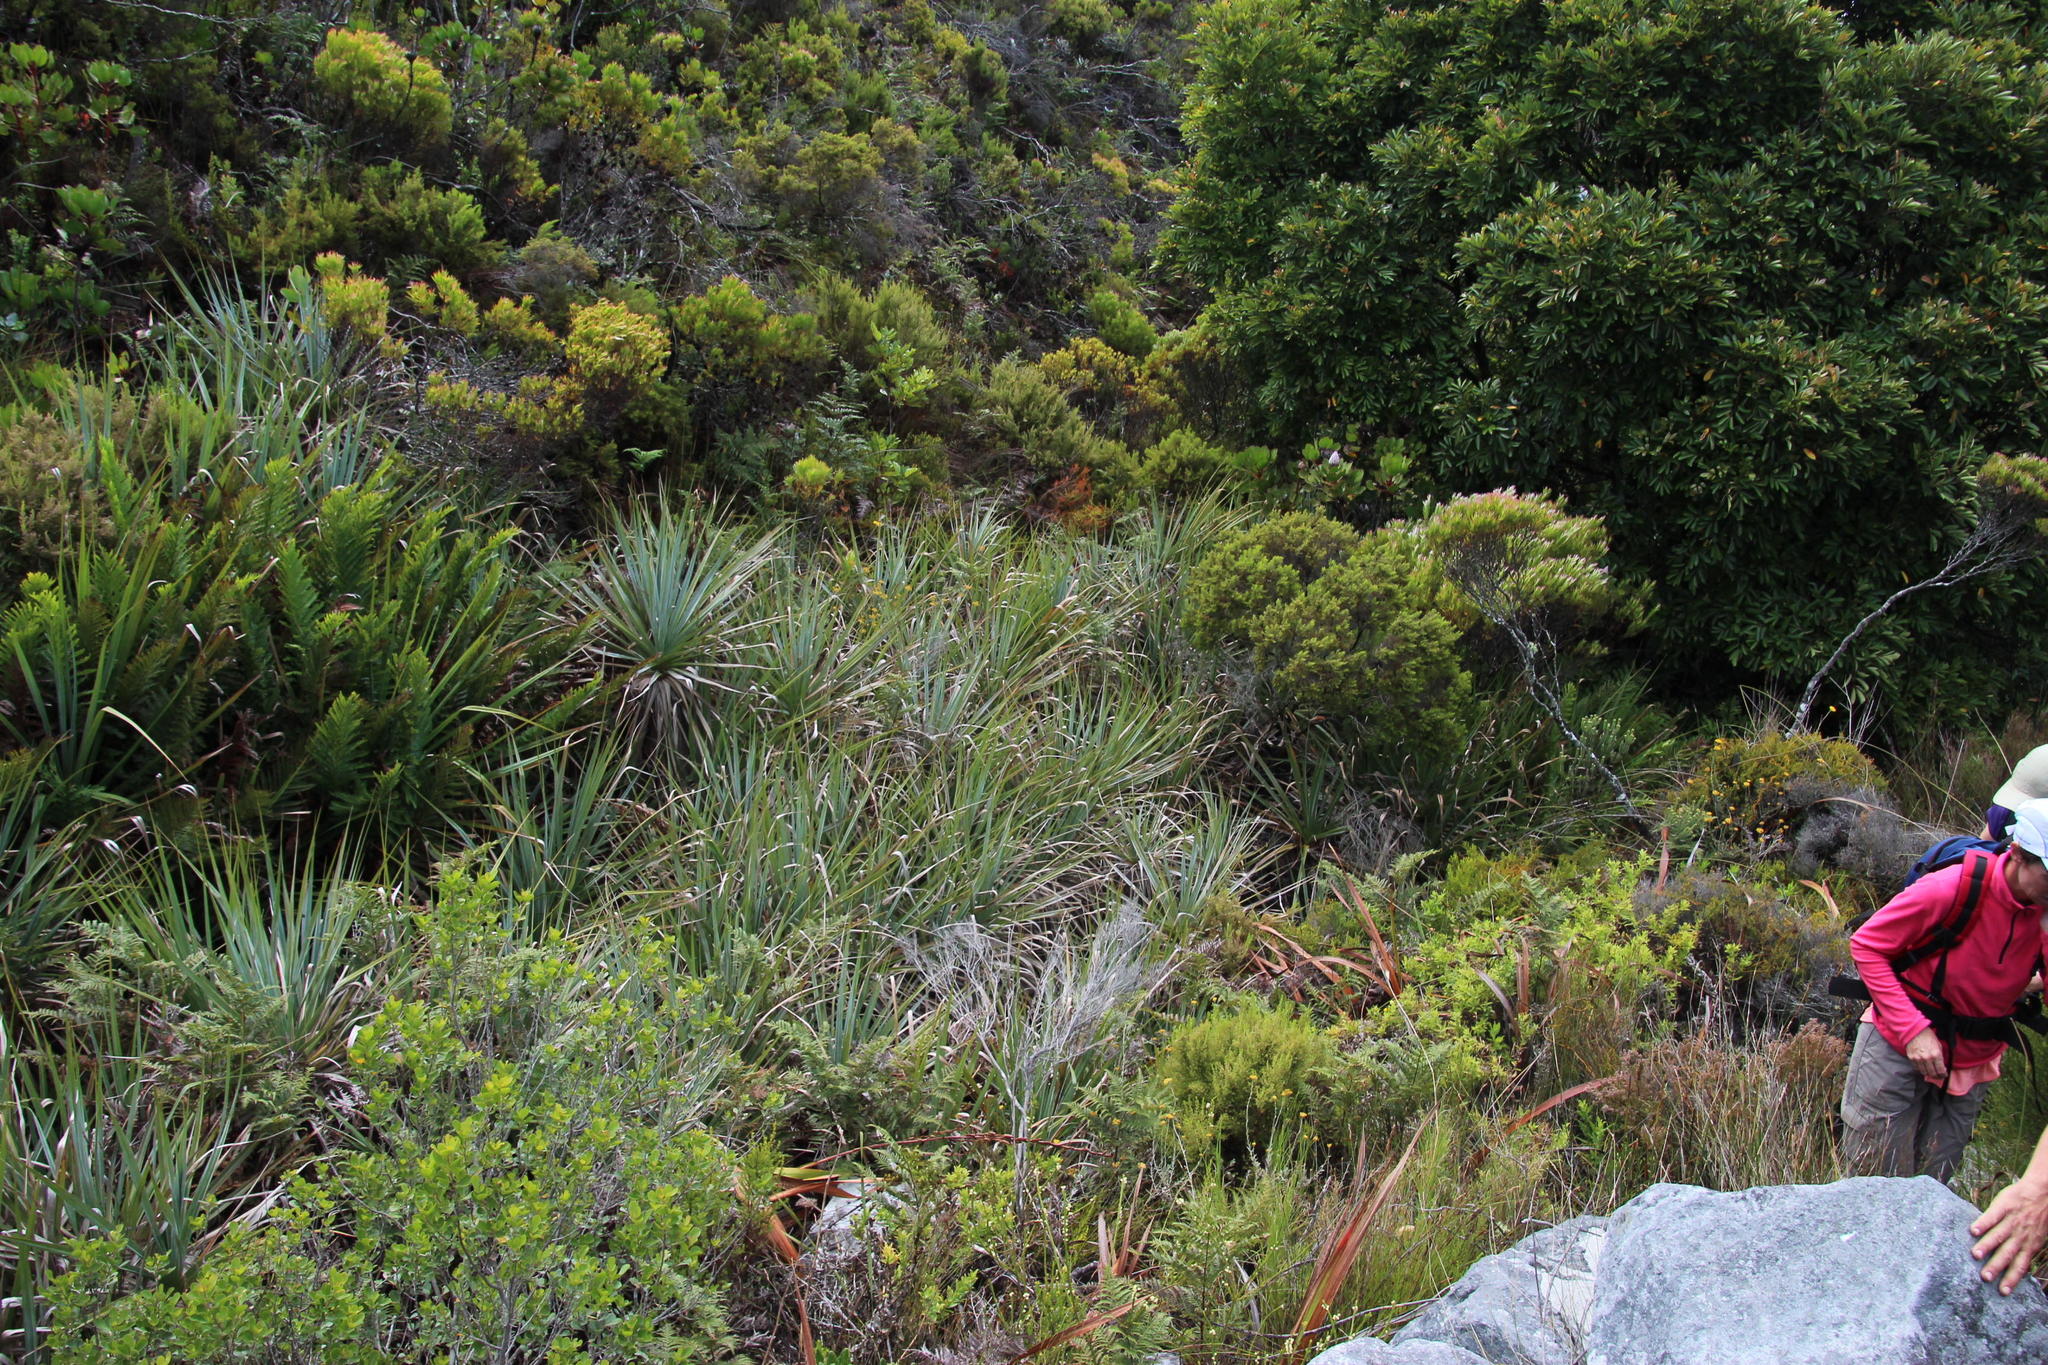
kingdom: Plantae
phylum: Tracheophyta
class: Liliopsida
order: Poales
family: Thurniaceae
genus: Prionium
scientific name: Prionium serratum
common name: Palmiet
